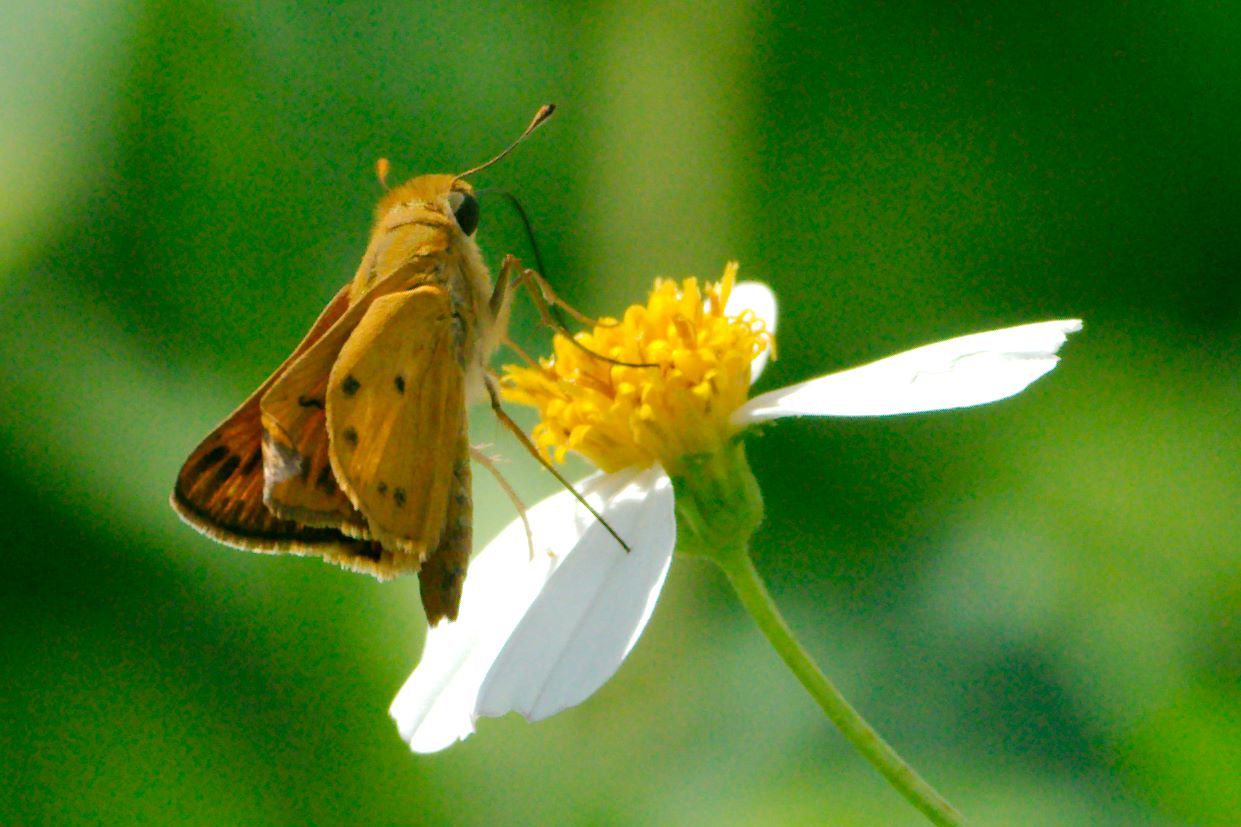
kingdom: Animalia
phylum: Arthropoda
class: Insecta
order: Lepidoptera
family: Hesperiidae
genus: Hylephila
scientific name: Hylephila phyleus
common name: Fiery skipper
